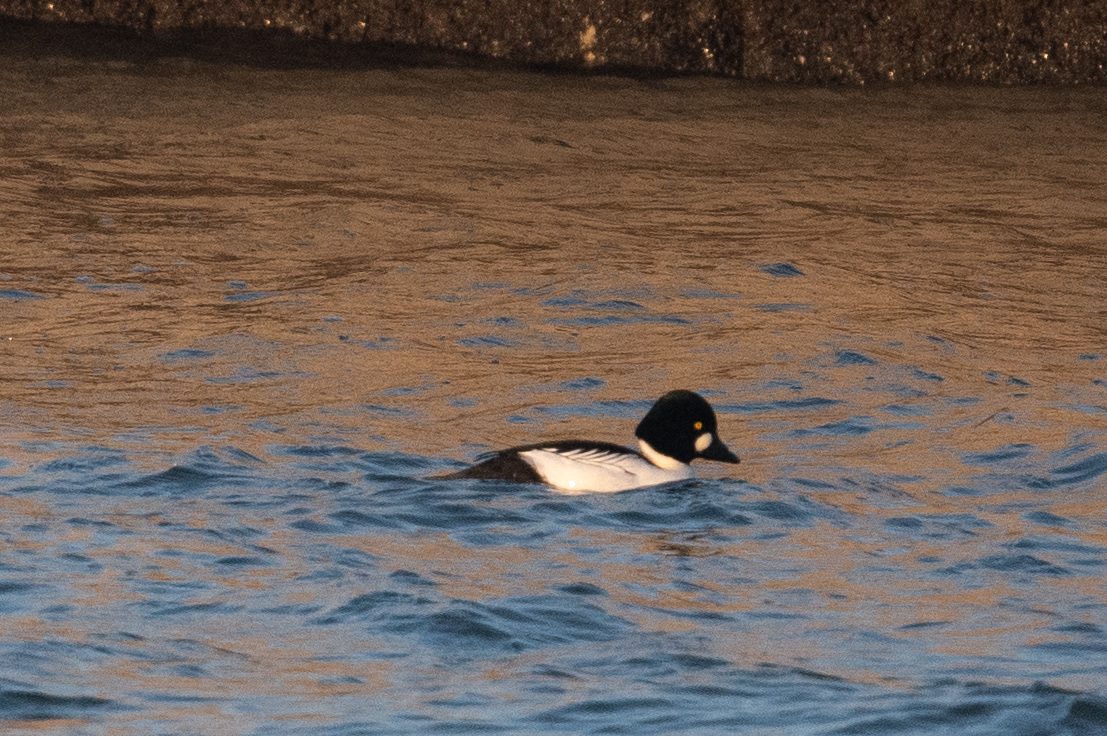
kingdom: Animalia
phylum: Chordata
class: Aves
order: Anseriformes
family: Anatidae
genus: Bucephala
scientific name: Bucephala clangula
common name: Common goldeneye
